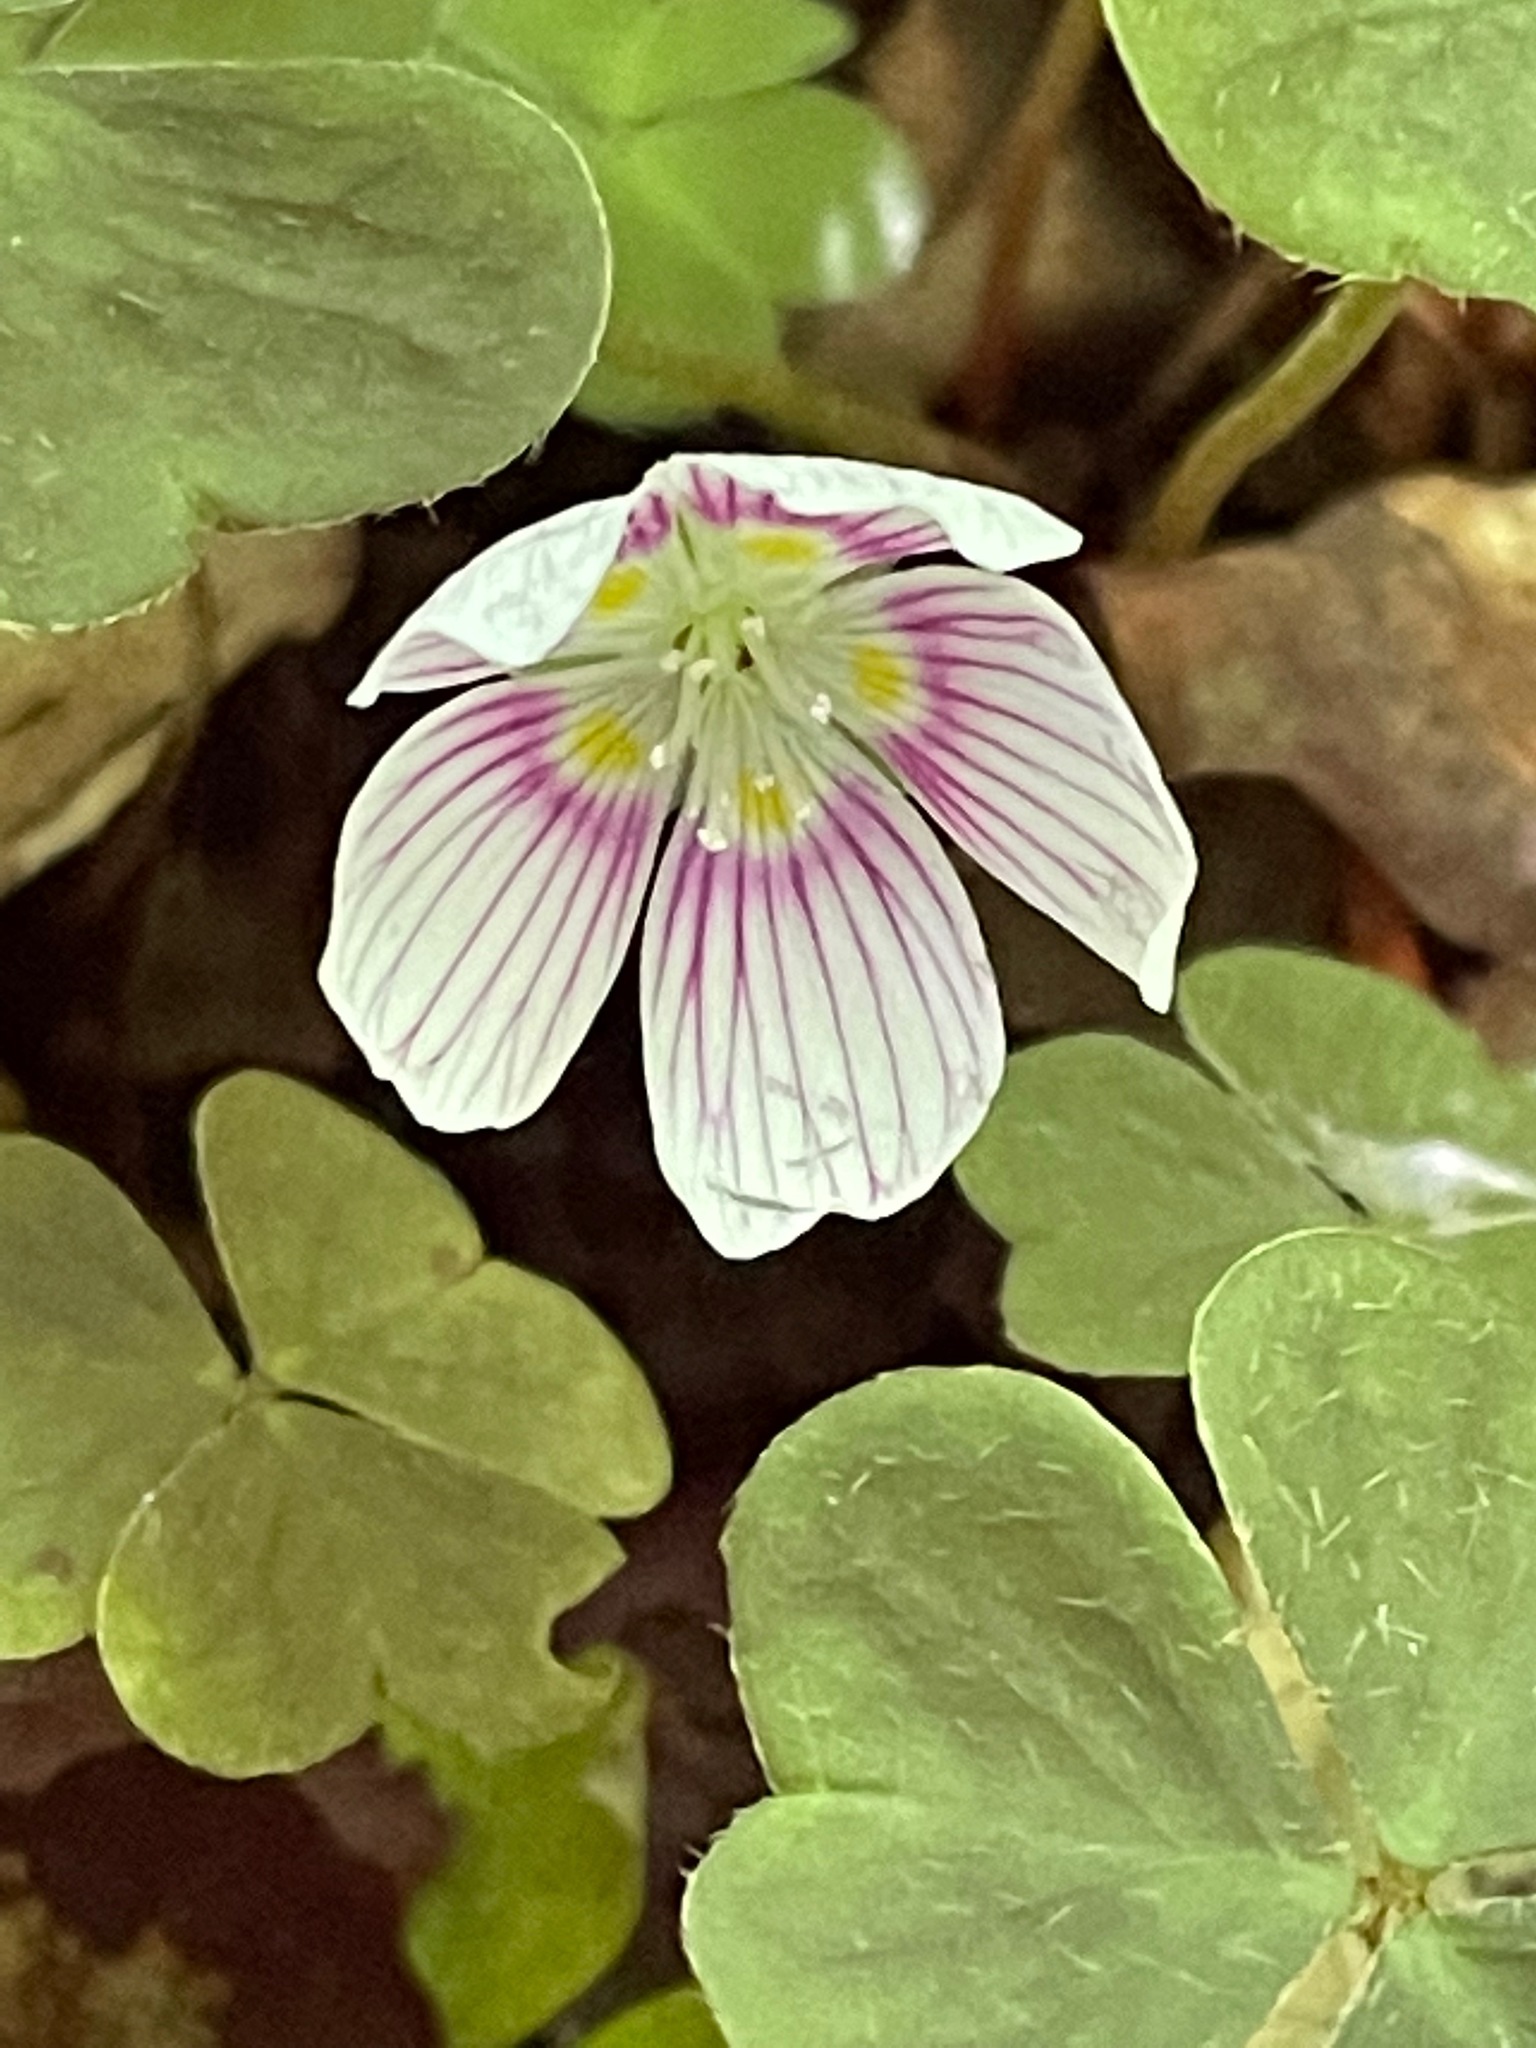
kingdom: Plantae
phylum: Tracheophyta
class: Magnoliopsida
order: Oxalidales
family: Oxalidaceae
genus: Oxalis
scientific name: Oxalis montana
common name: American wood-sorrel
